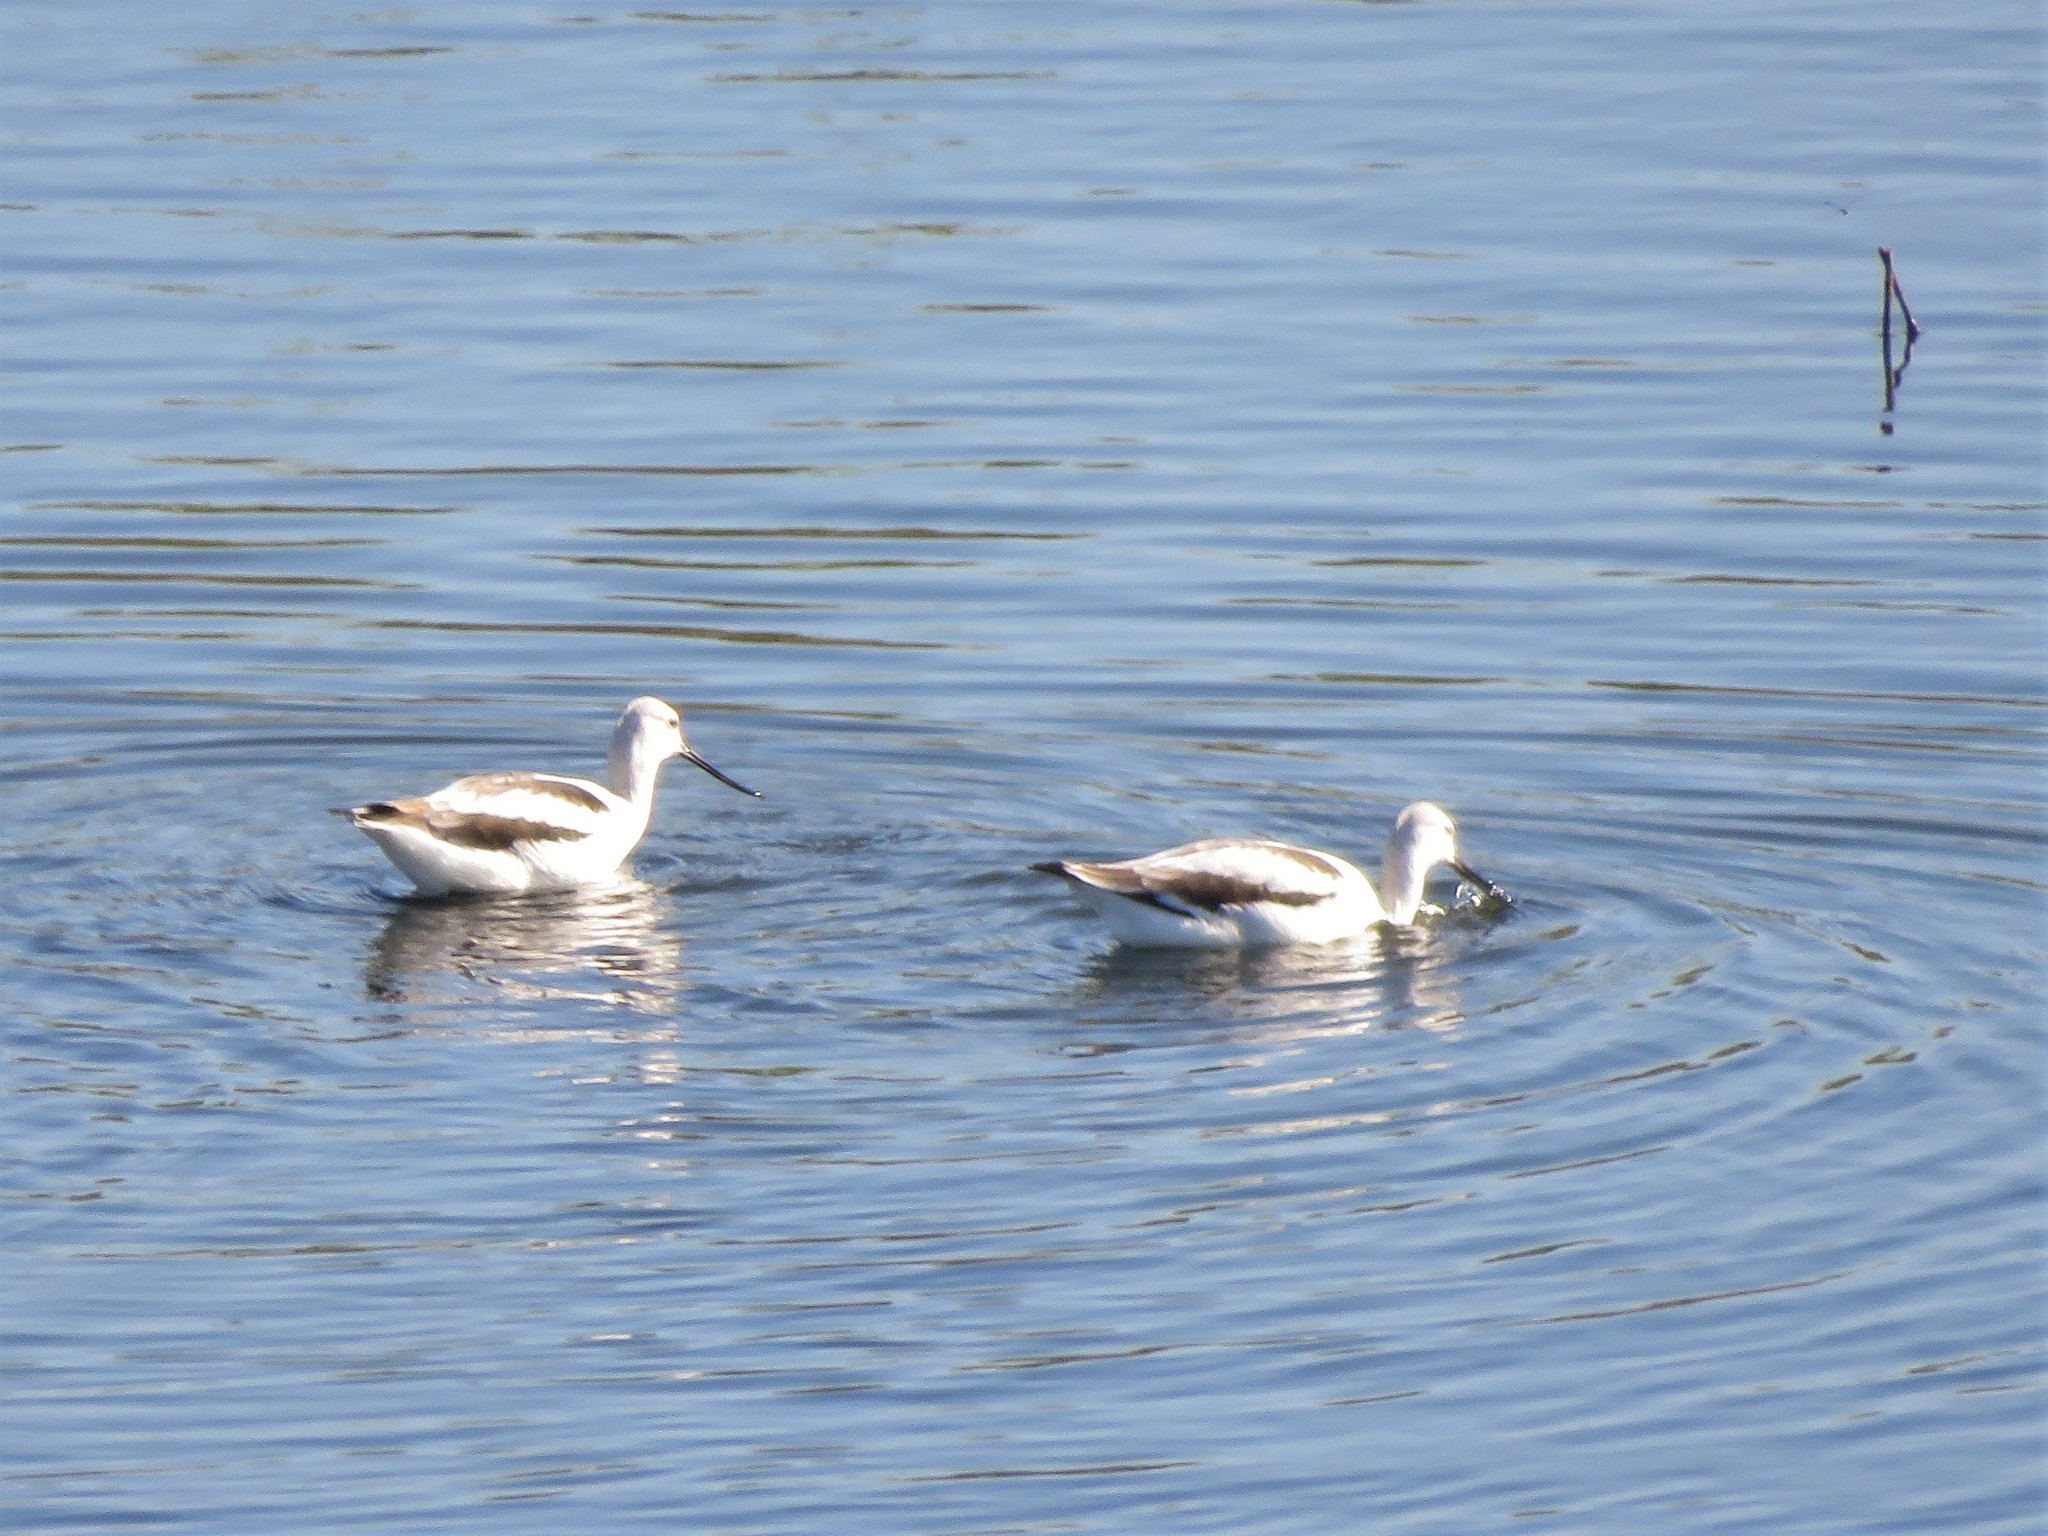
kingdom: Animalia
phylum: Chordata
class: Aves
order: Charadriiformes
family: Recurvirostridae
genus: Recurvirostra
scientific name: Recurvirostra americana
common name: American avocet
